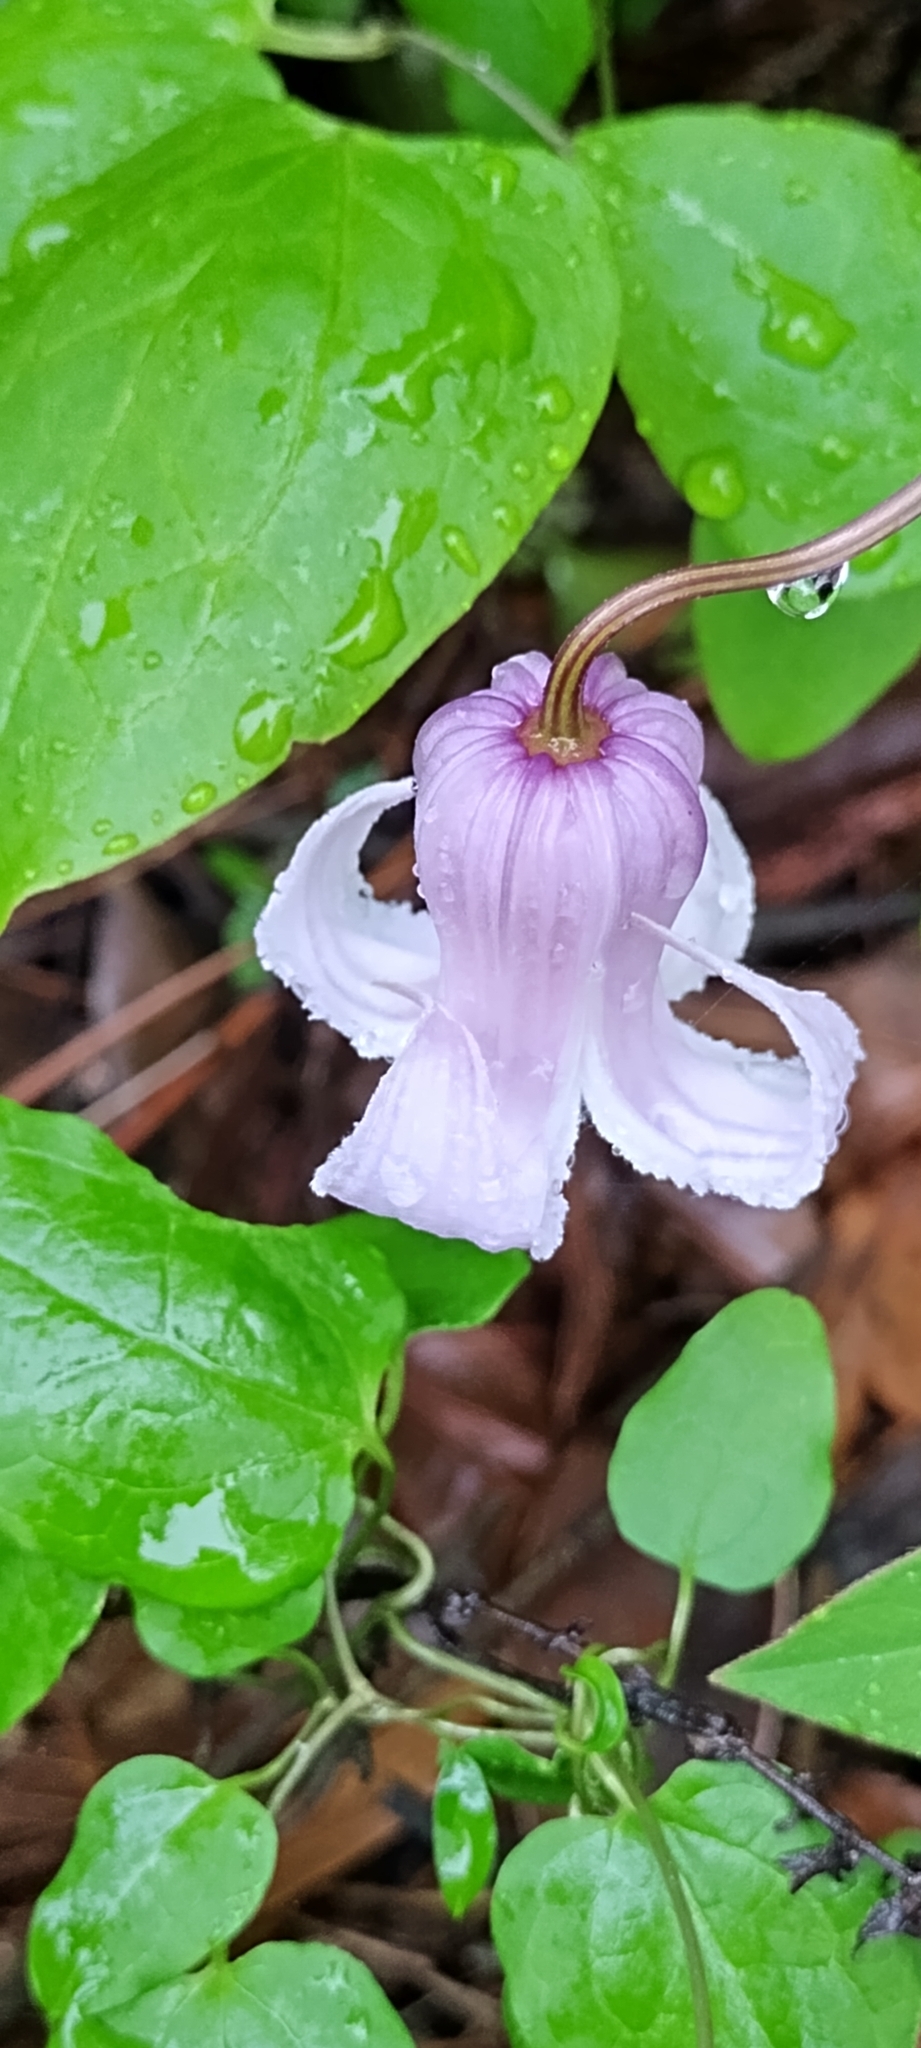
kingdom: Plantae
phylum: Tracheophyta
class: Magnoliopsida
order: Ranunculales
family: Ranunculaceae
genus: Clematis
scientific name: Clematis crispa
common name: Curly clematis
